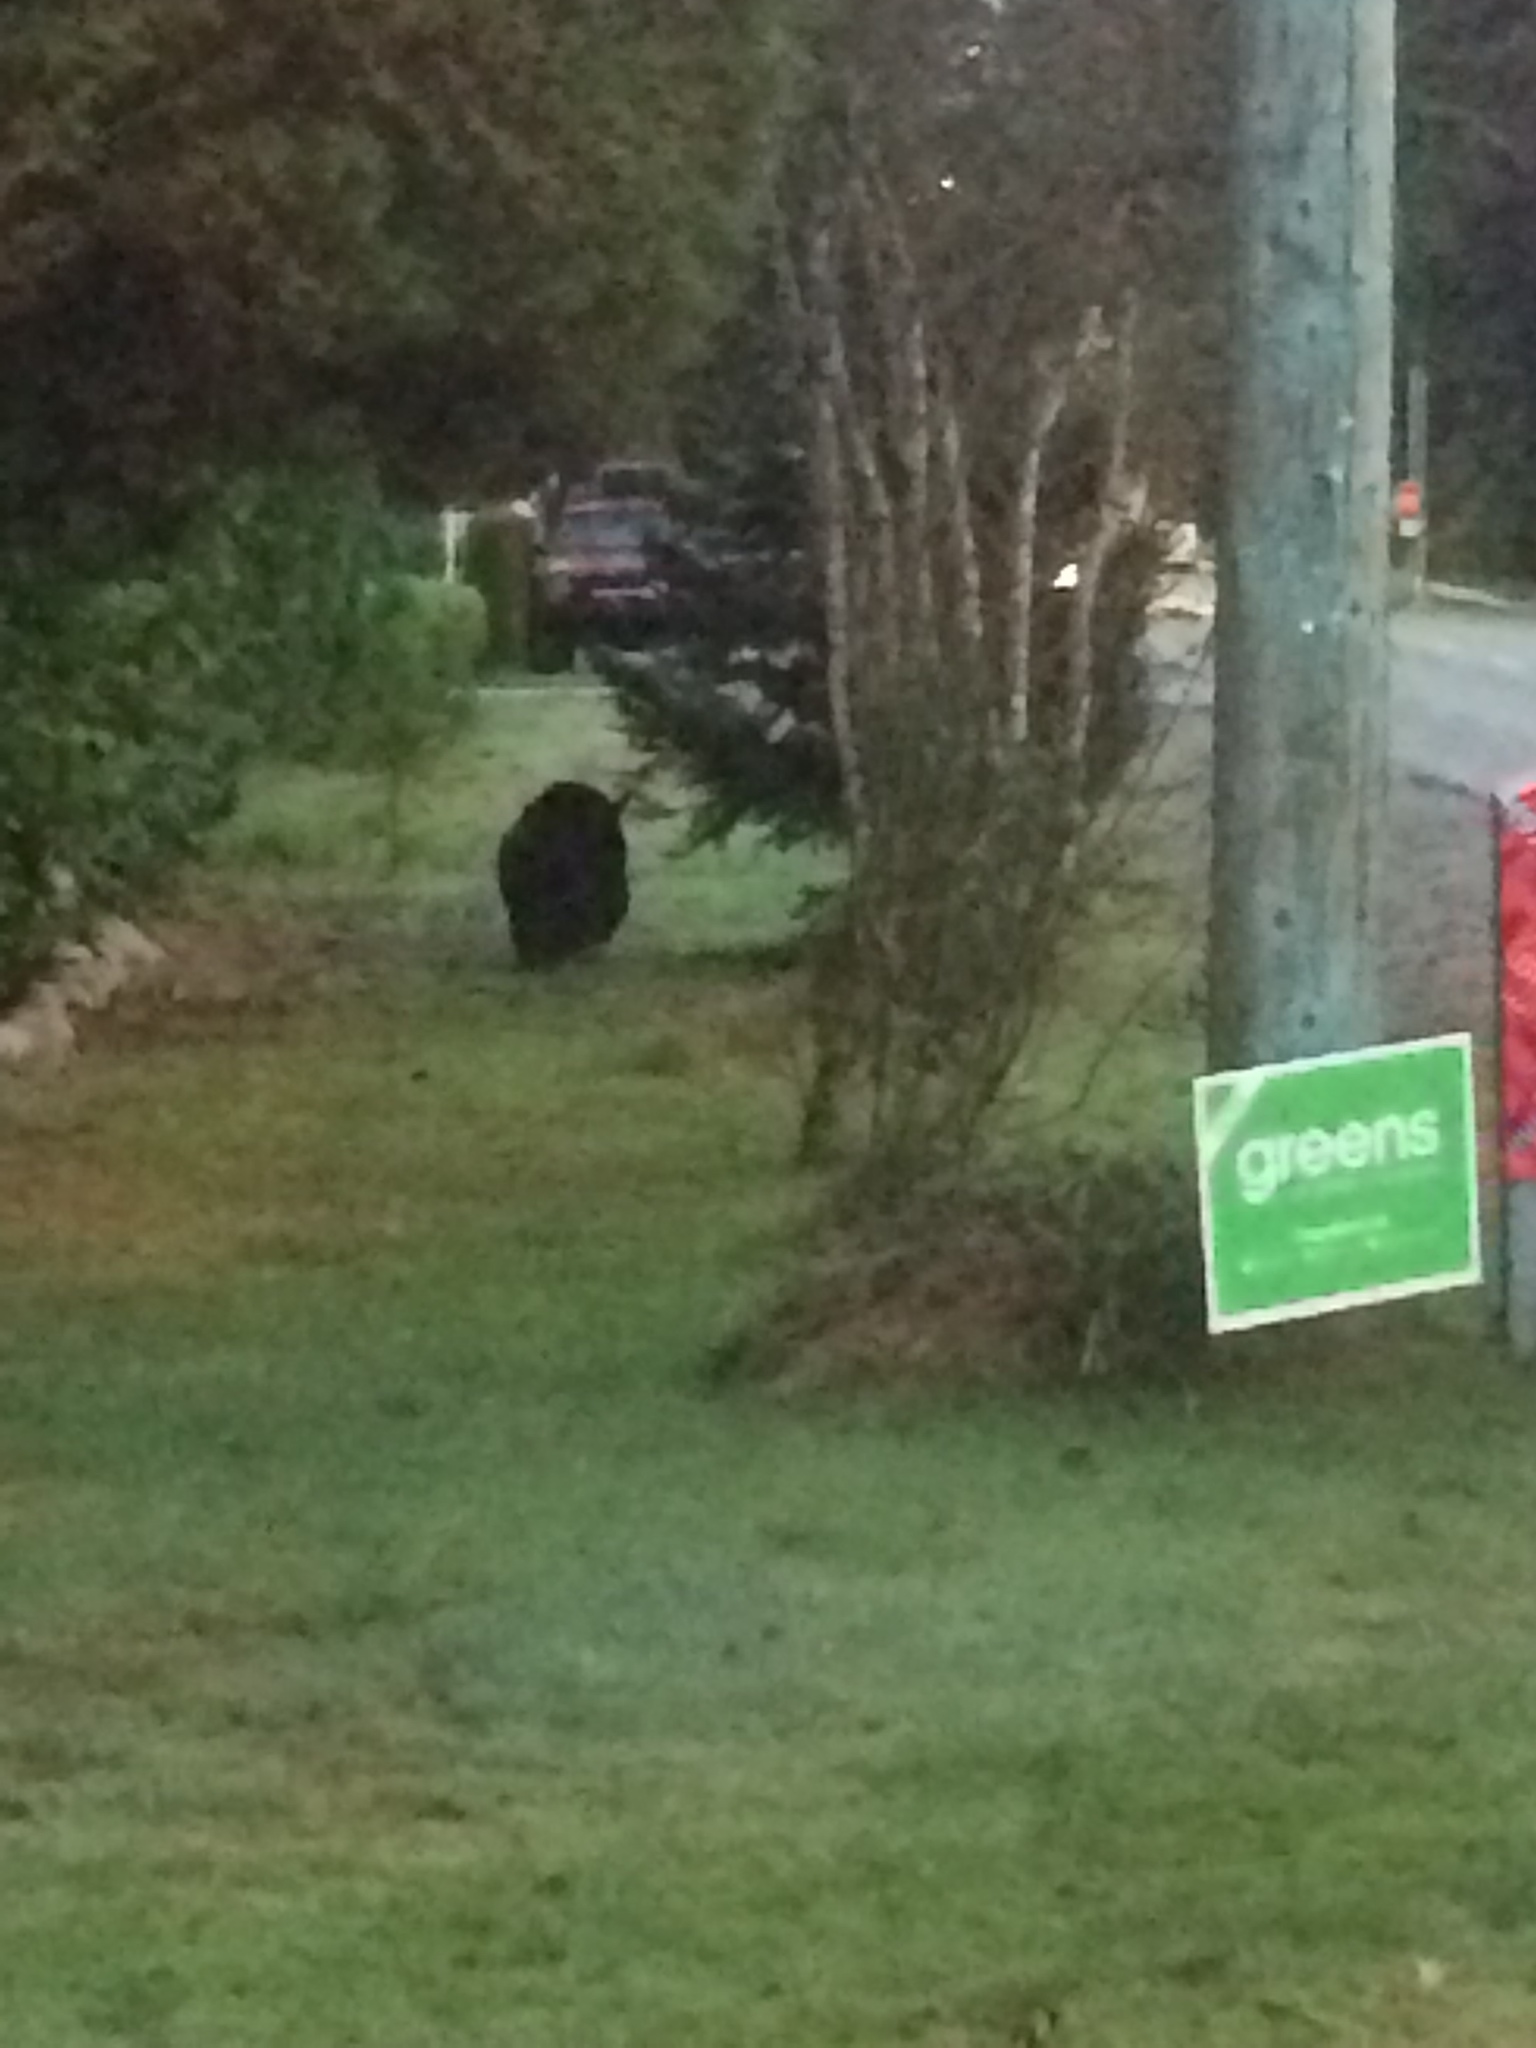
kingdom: Animalia
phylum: Chordata
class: Mammalia
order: Carnivora
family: Ursidae
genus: Ursus
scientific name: Ursus americanus
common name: American black bear
